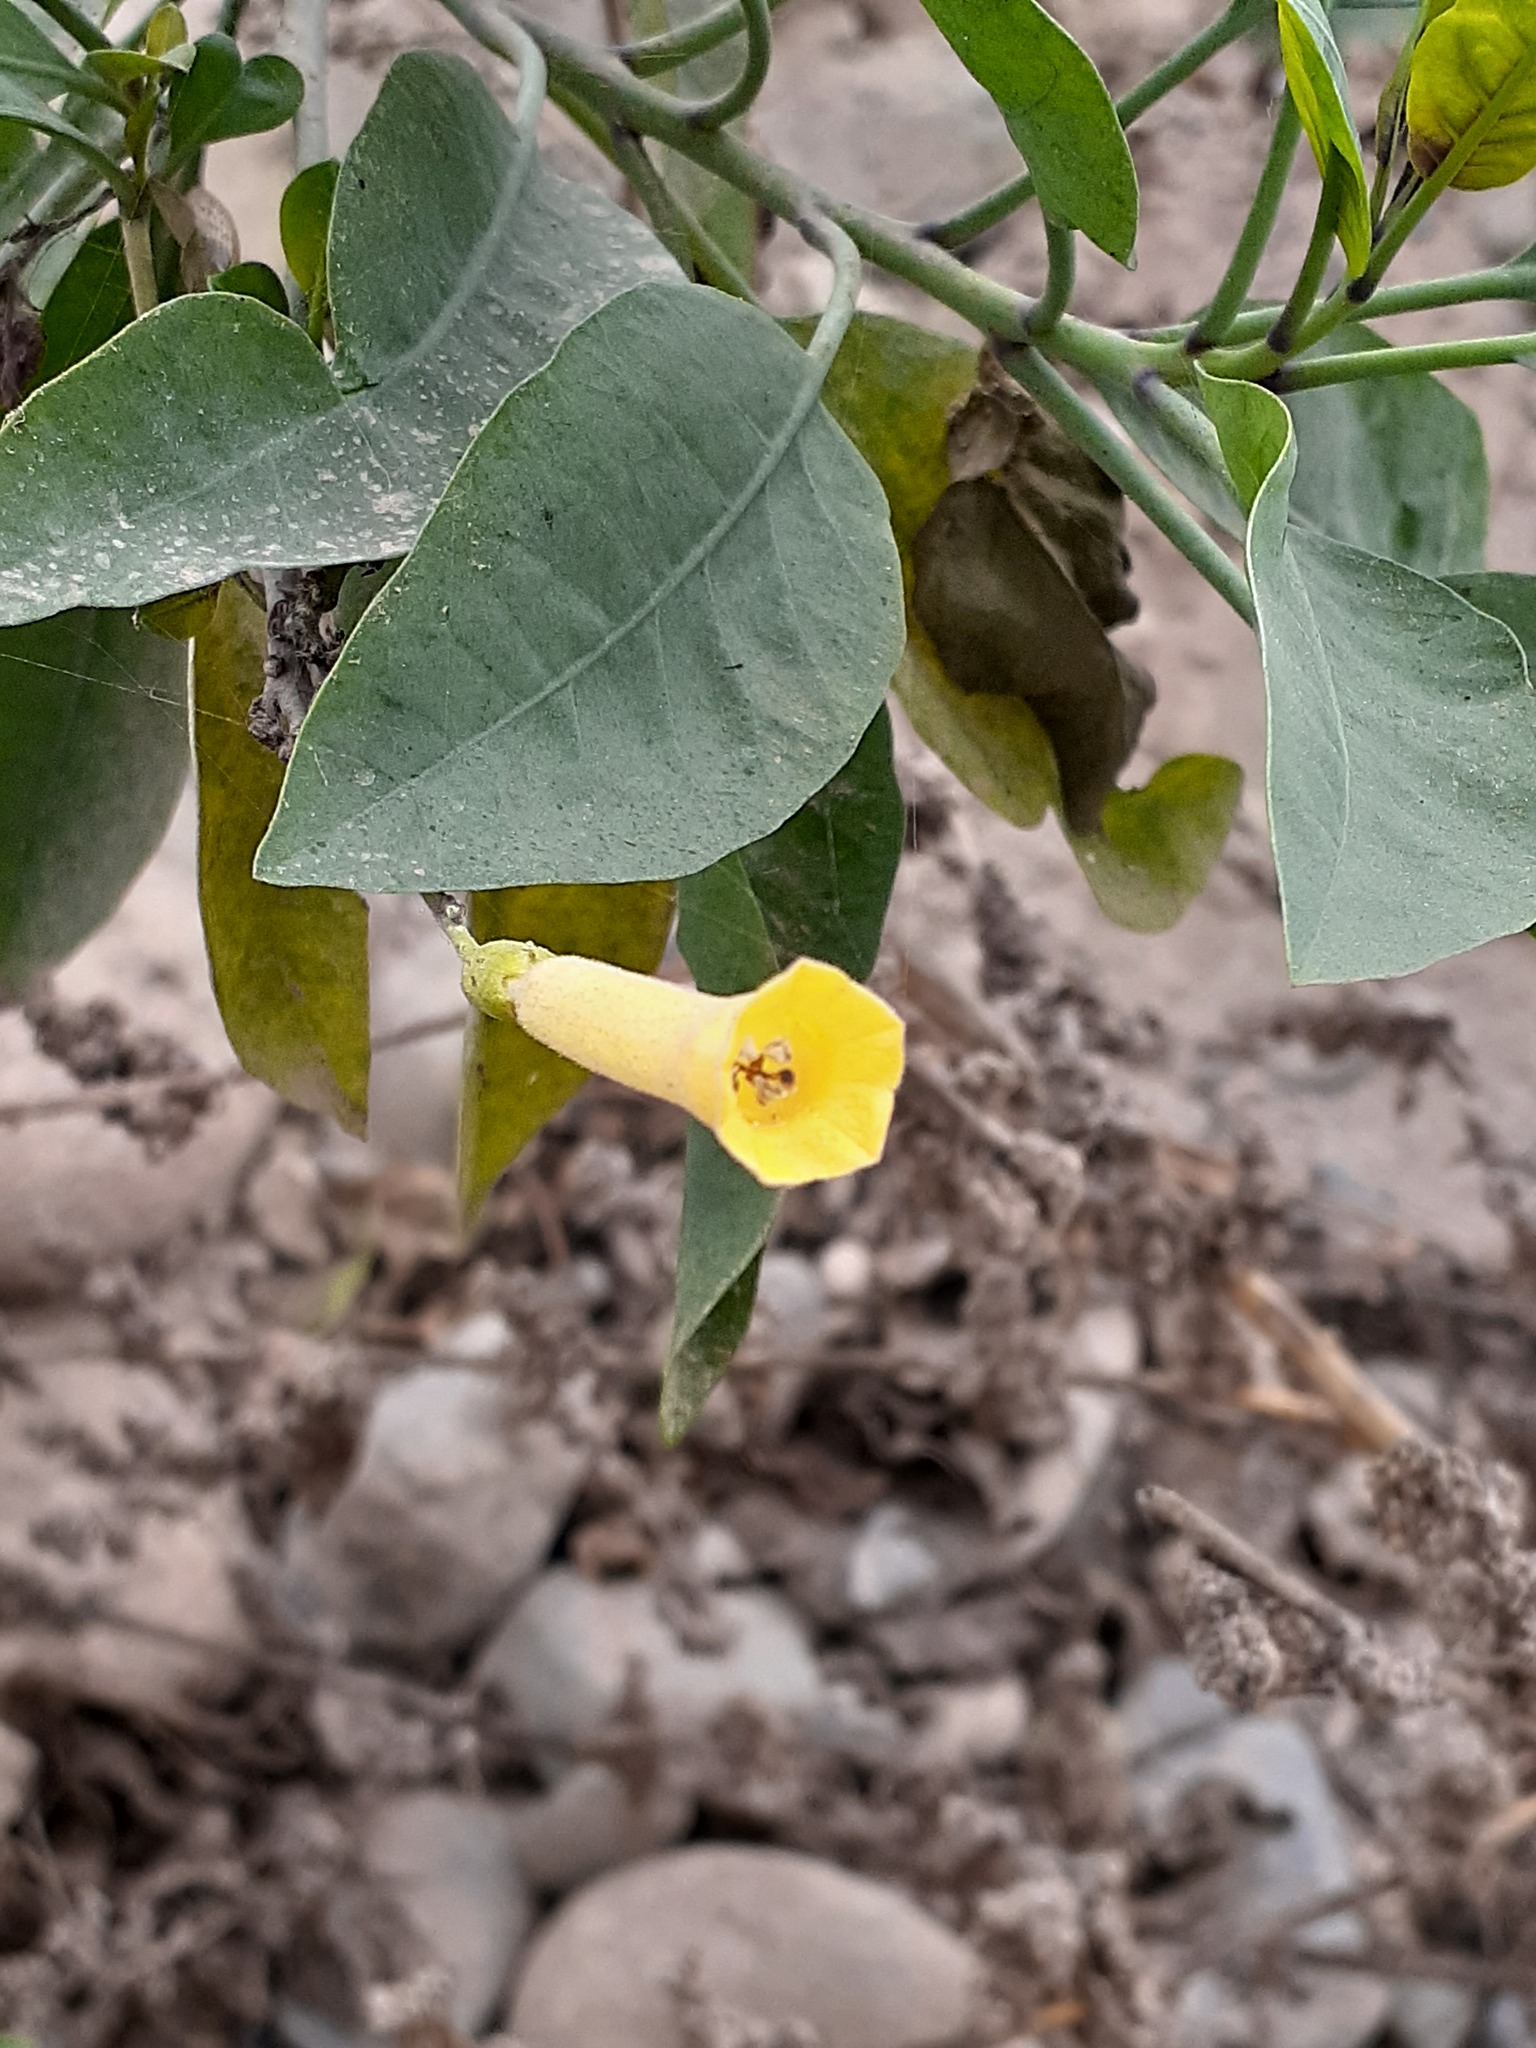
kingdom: Plantae
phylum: Tracheophyta
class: Magnoliopsida
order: Solanales
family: Solanaceae
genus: Nicotiana
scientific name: Nicotiana glauca
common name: Tree tobacco
